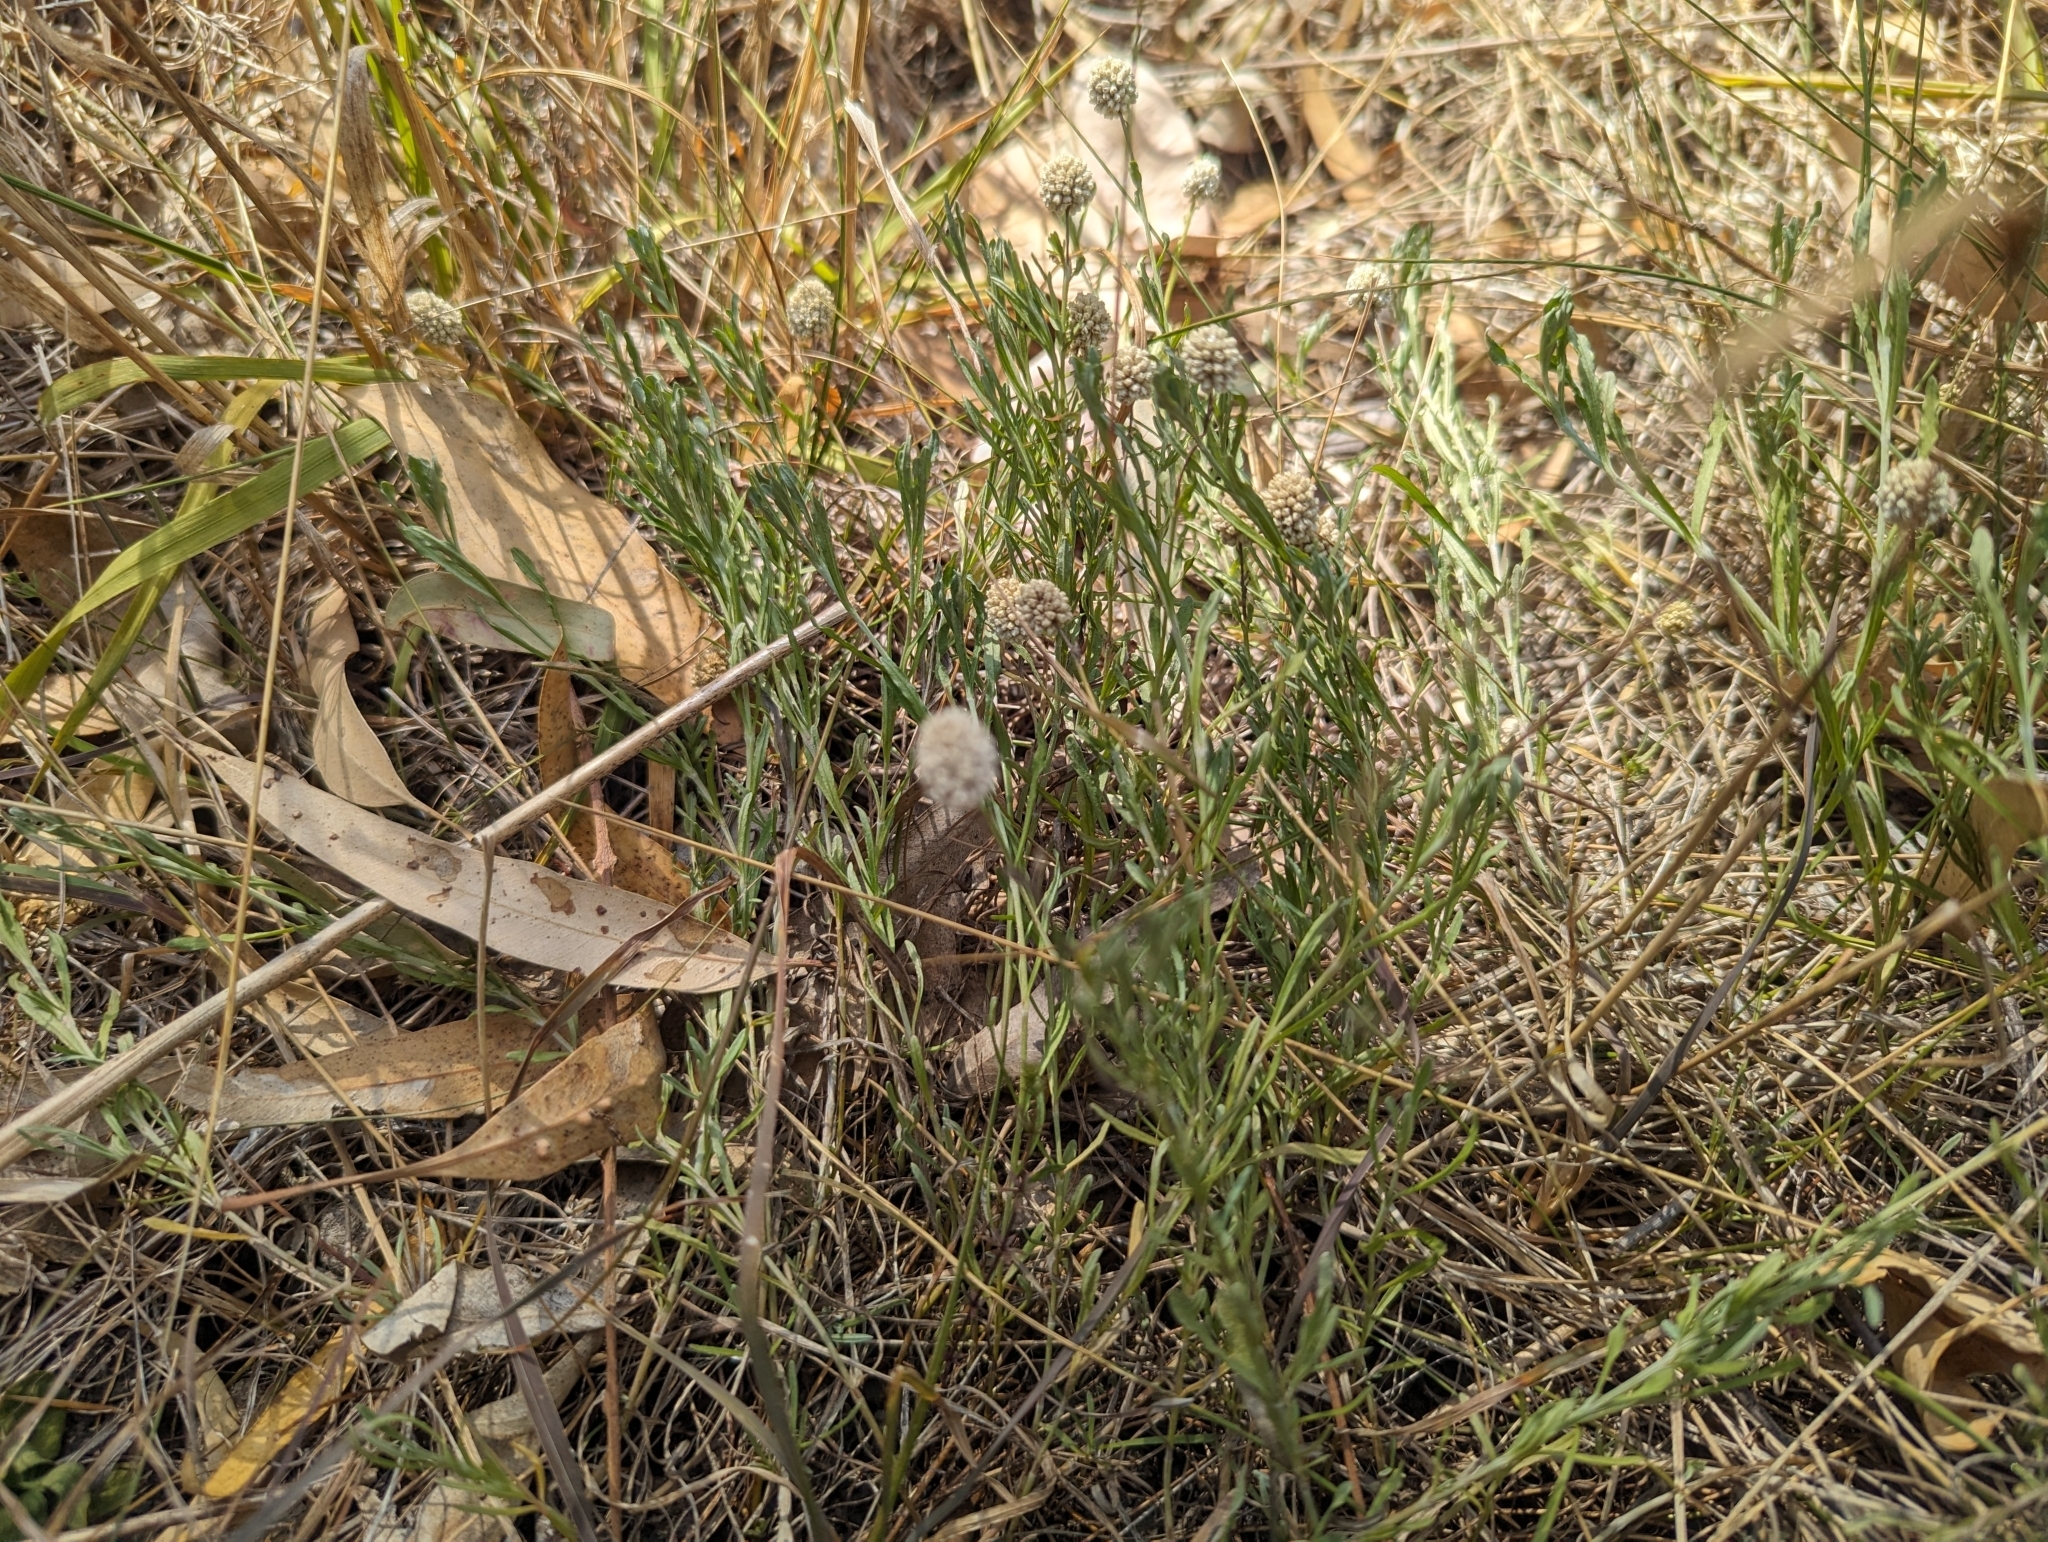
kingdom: Plantae
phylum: Tracheophyta
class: Magnoliopsida
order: Asterales
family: Asteraceae
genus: Calocephalus
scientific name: Calocephalus lacteus
